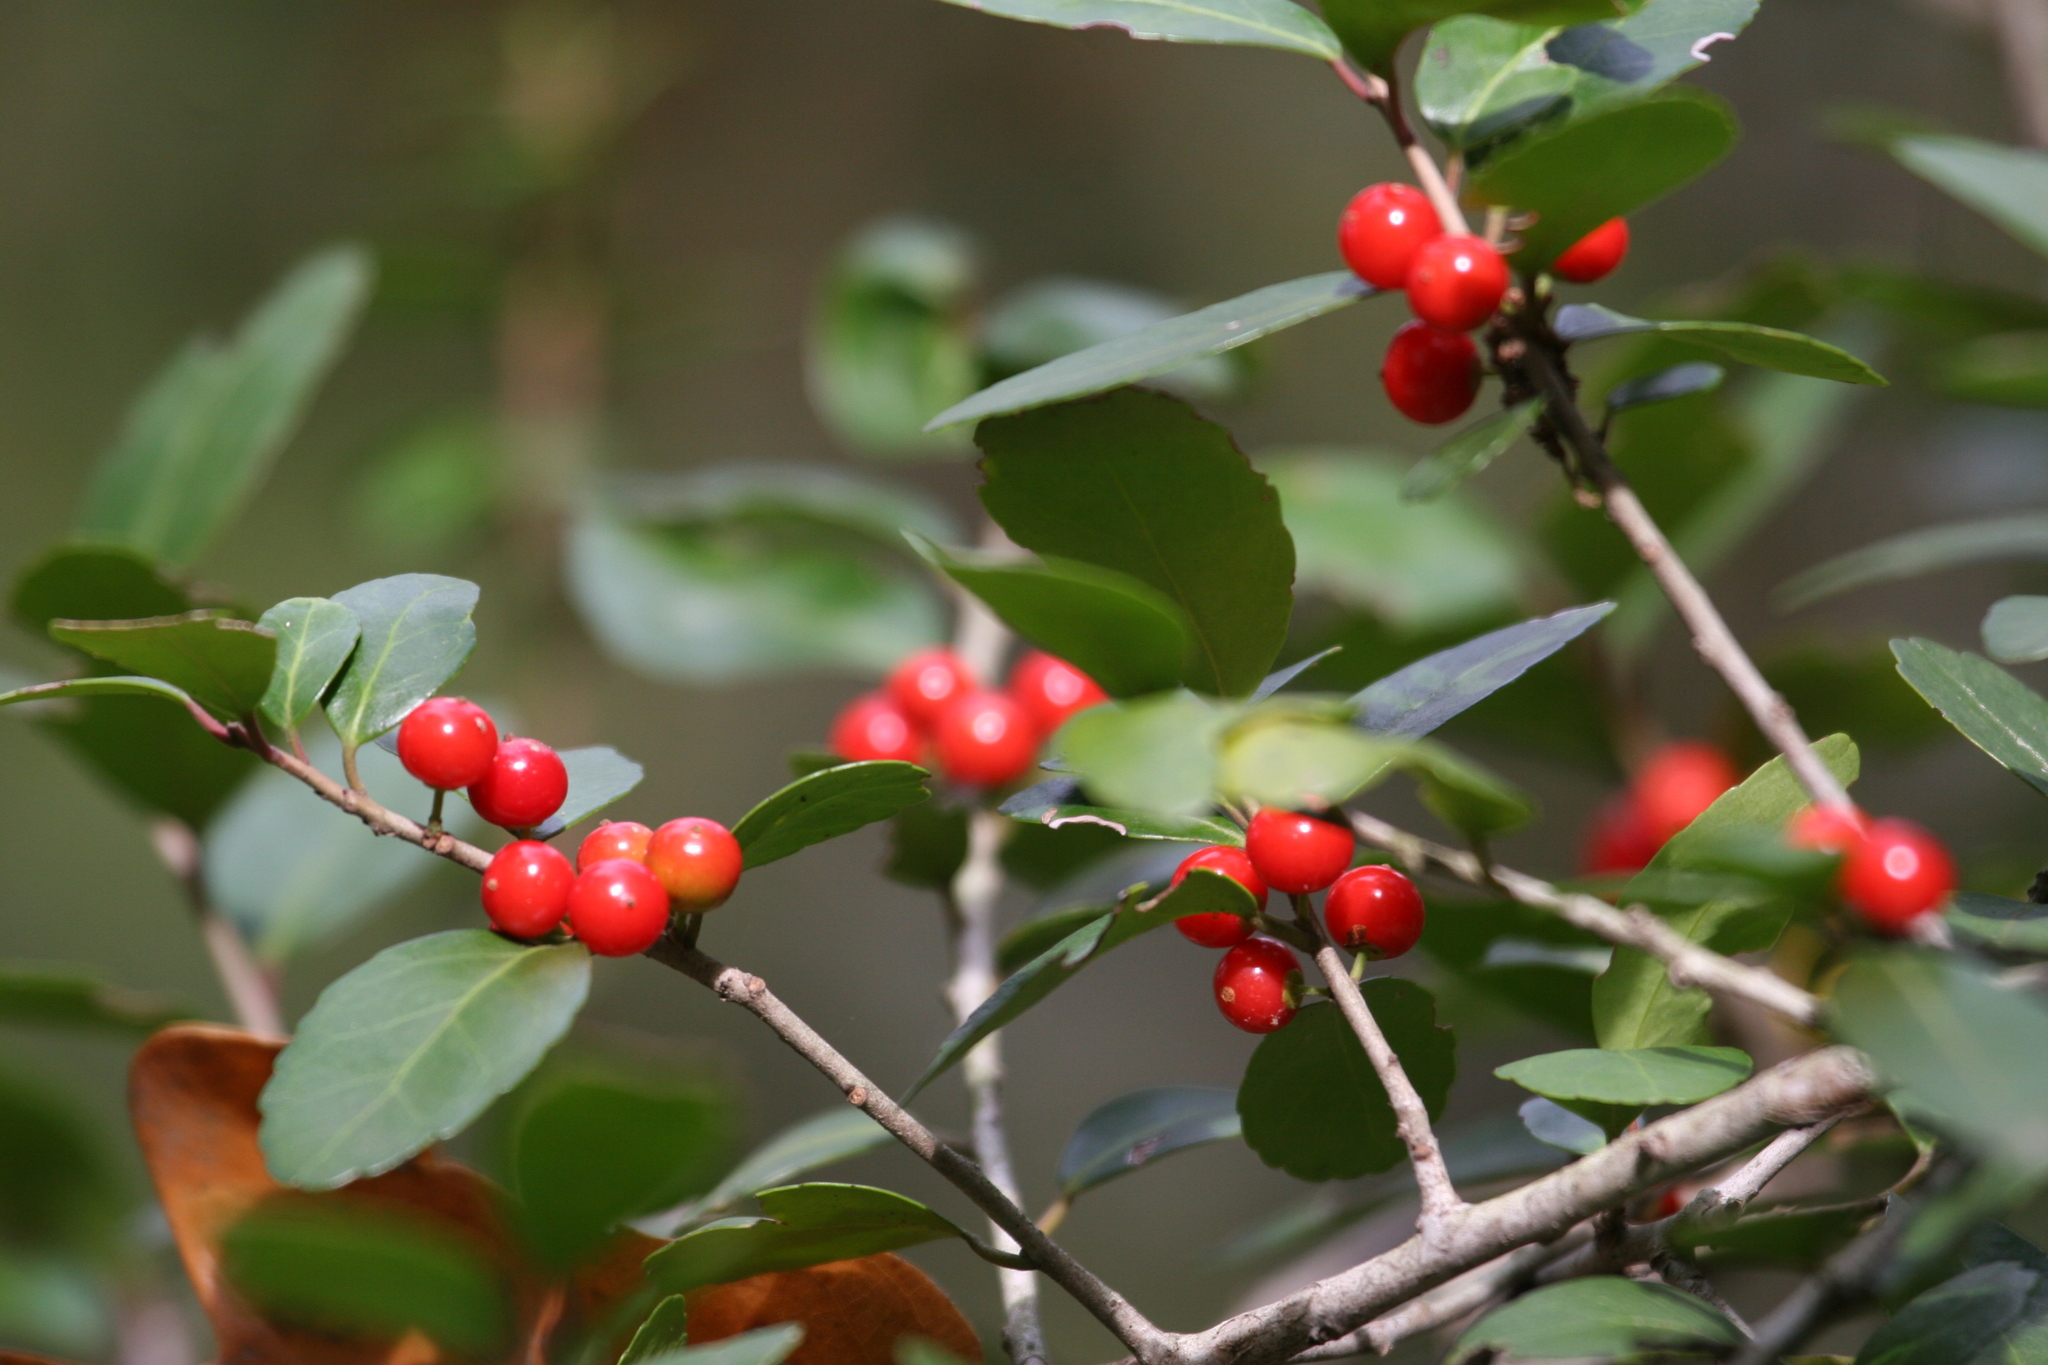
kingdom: Plantae
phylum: Tracheophyta
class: Magnoliopsida
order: Aquifoliales
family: Aquifoliaceae
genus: Ilex
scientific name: Ilex vomitoria
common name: Yaupon holly
